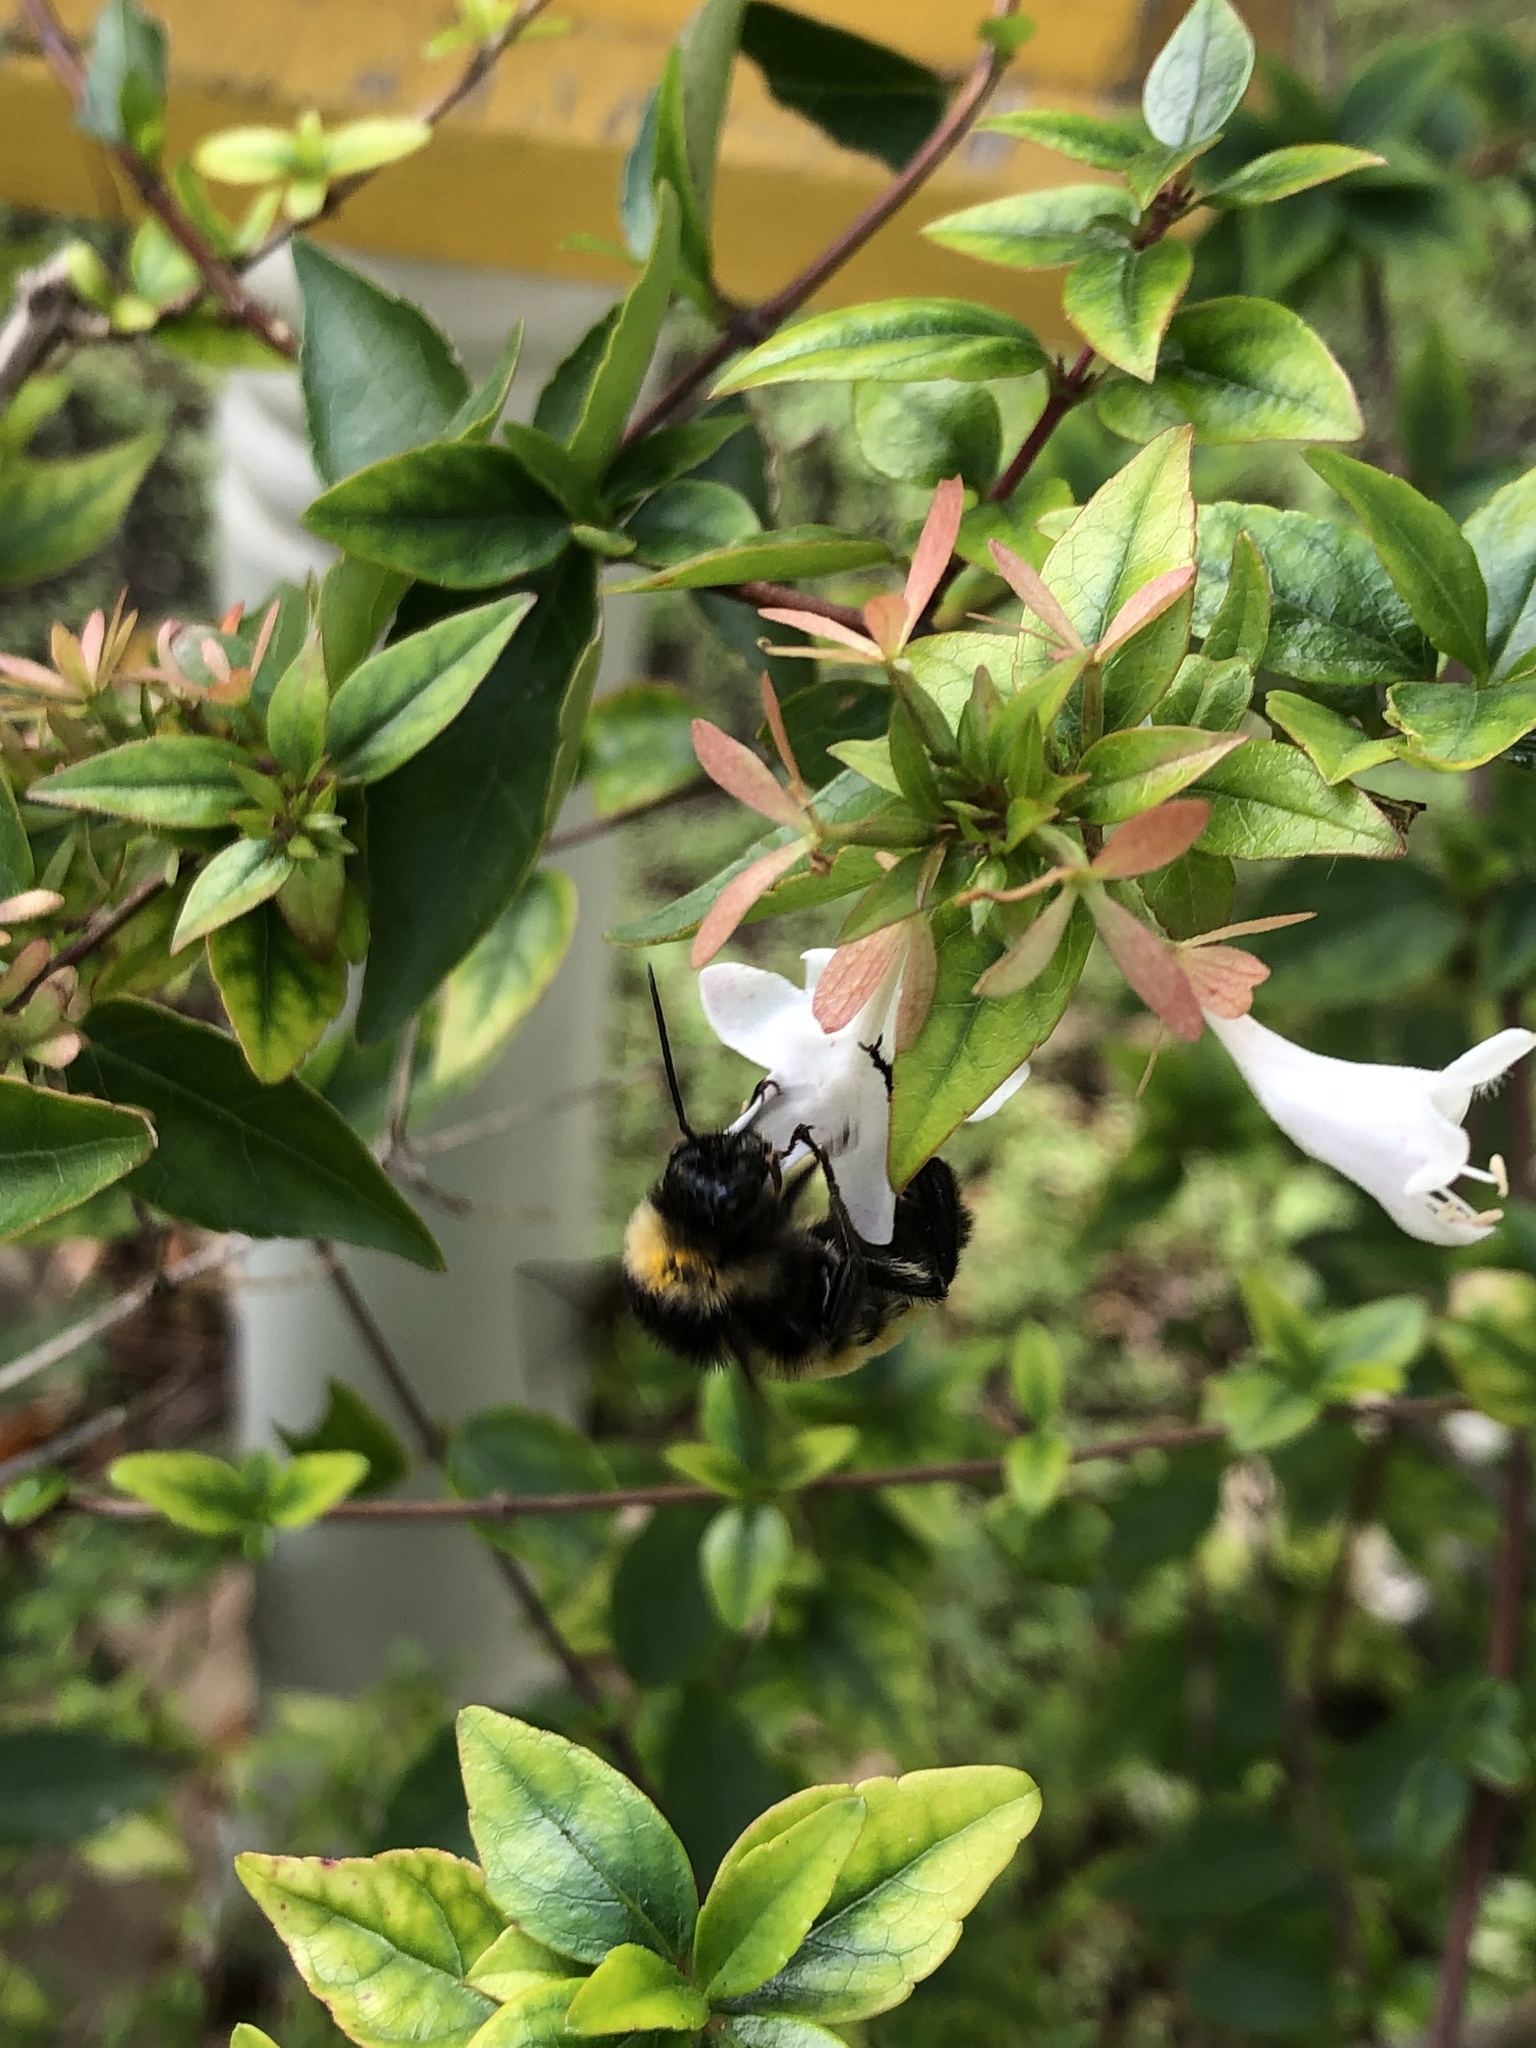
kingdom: Animalia
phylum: Arthropoda
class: Insecta
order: Hymenoptera
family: Apidae
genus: Bombus
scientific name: Bombus pensylvanicus
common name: Bumble bee
